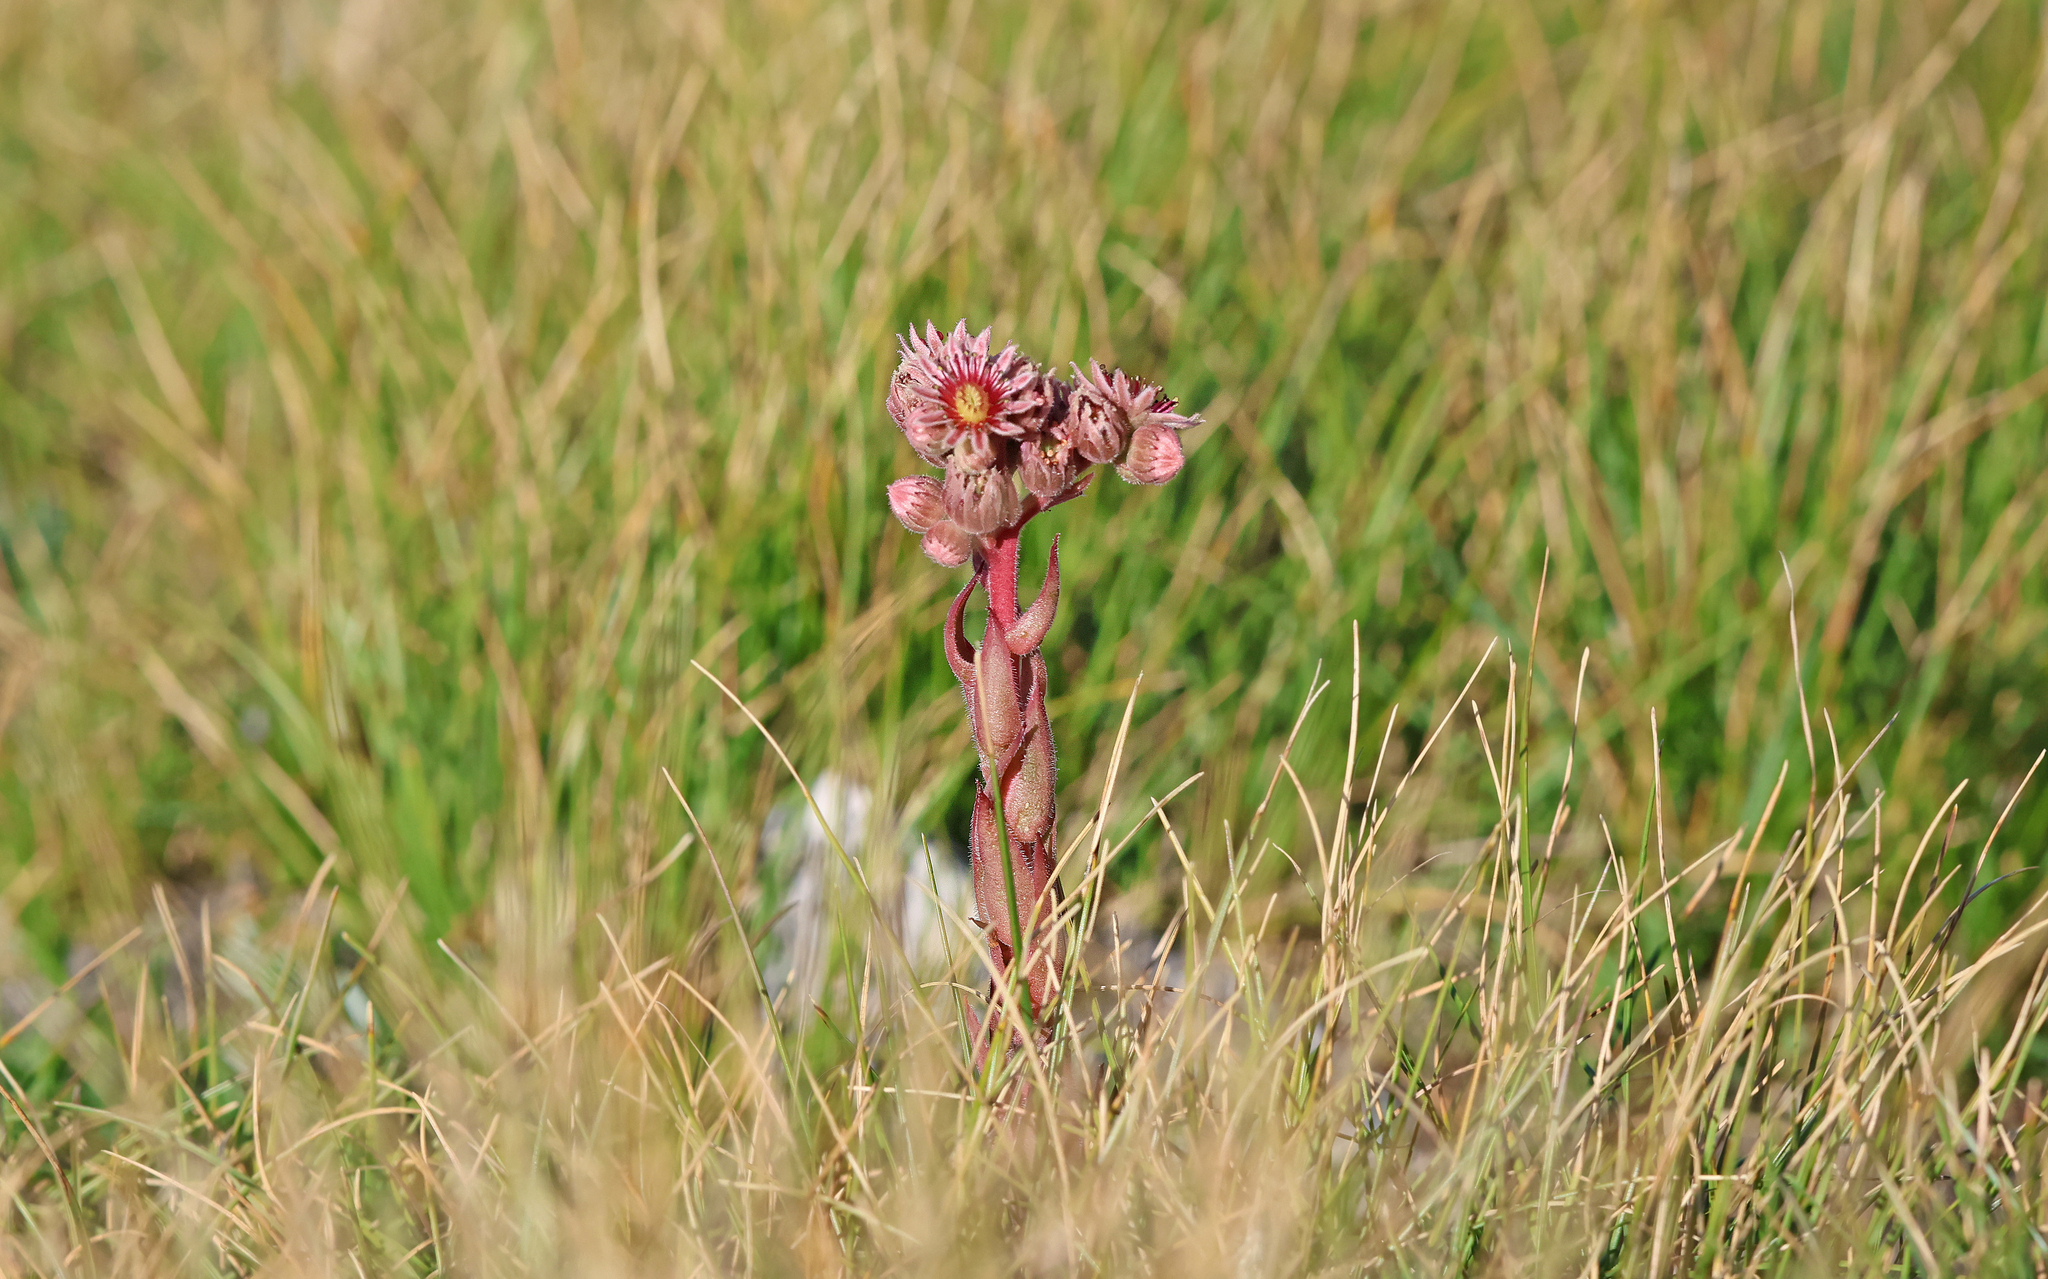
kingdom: Plantae
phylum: Tracheophyta
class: Magnoliopsida
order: Saxifragales
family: Crassulaceae
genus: Sempervivum
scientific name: Sempervivum tectorum
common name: House-leek
